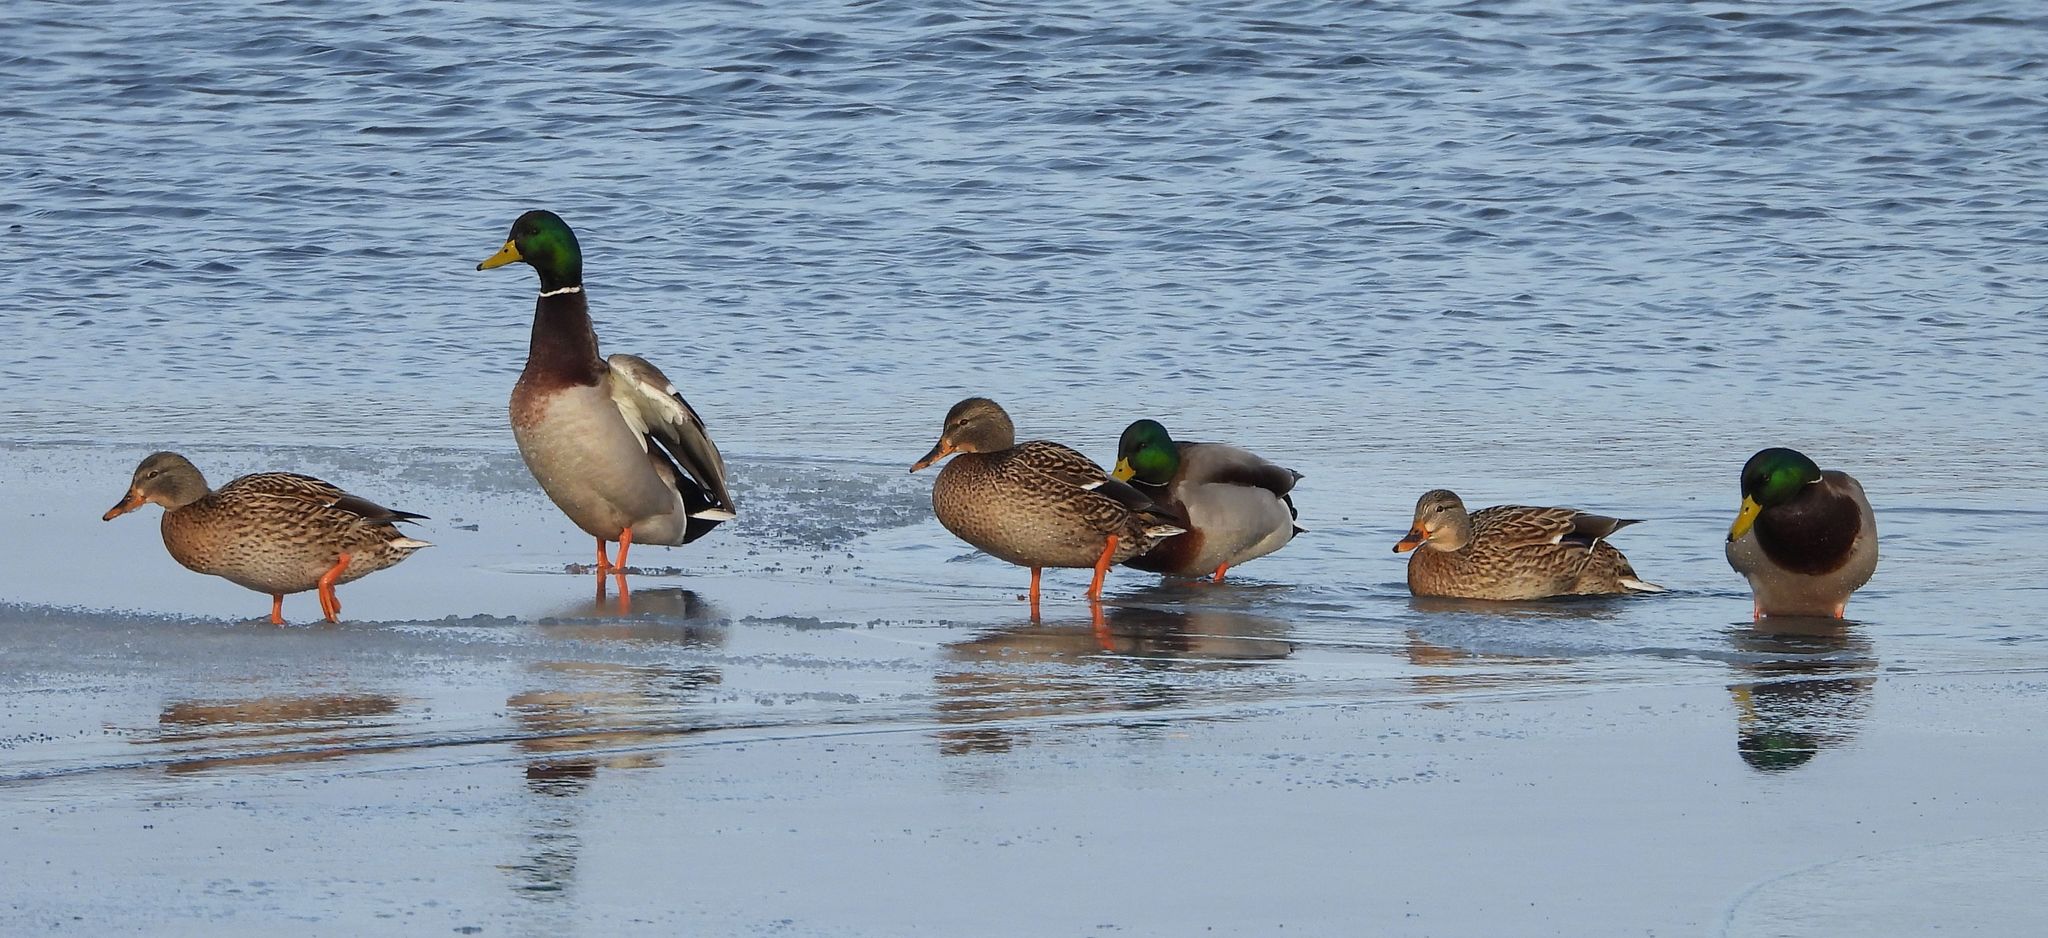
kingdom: Animalia
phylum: Chordata
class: Aves
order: Anseriformes
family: Anatidae
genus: Anas
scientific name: Anas platyrhynchos
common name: Mallard
